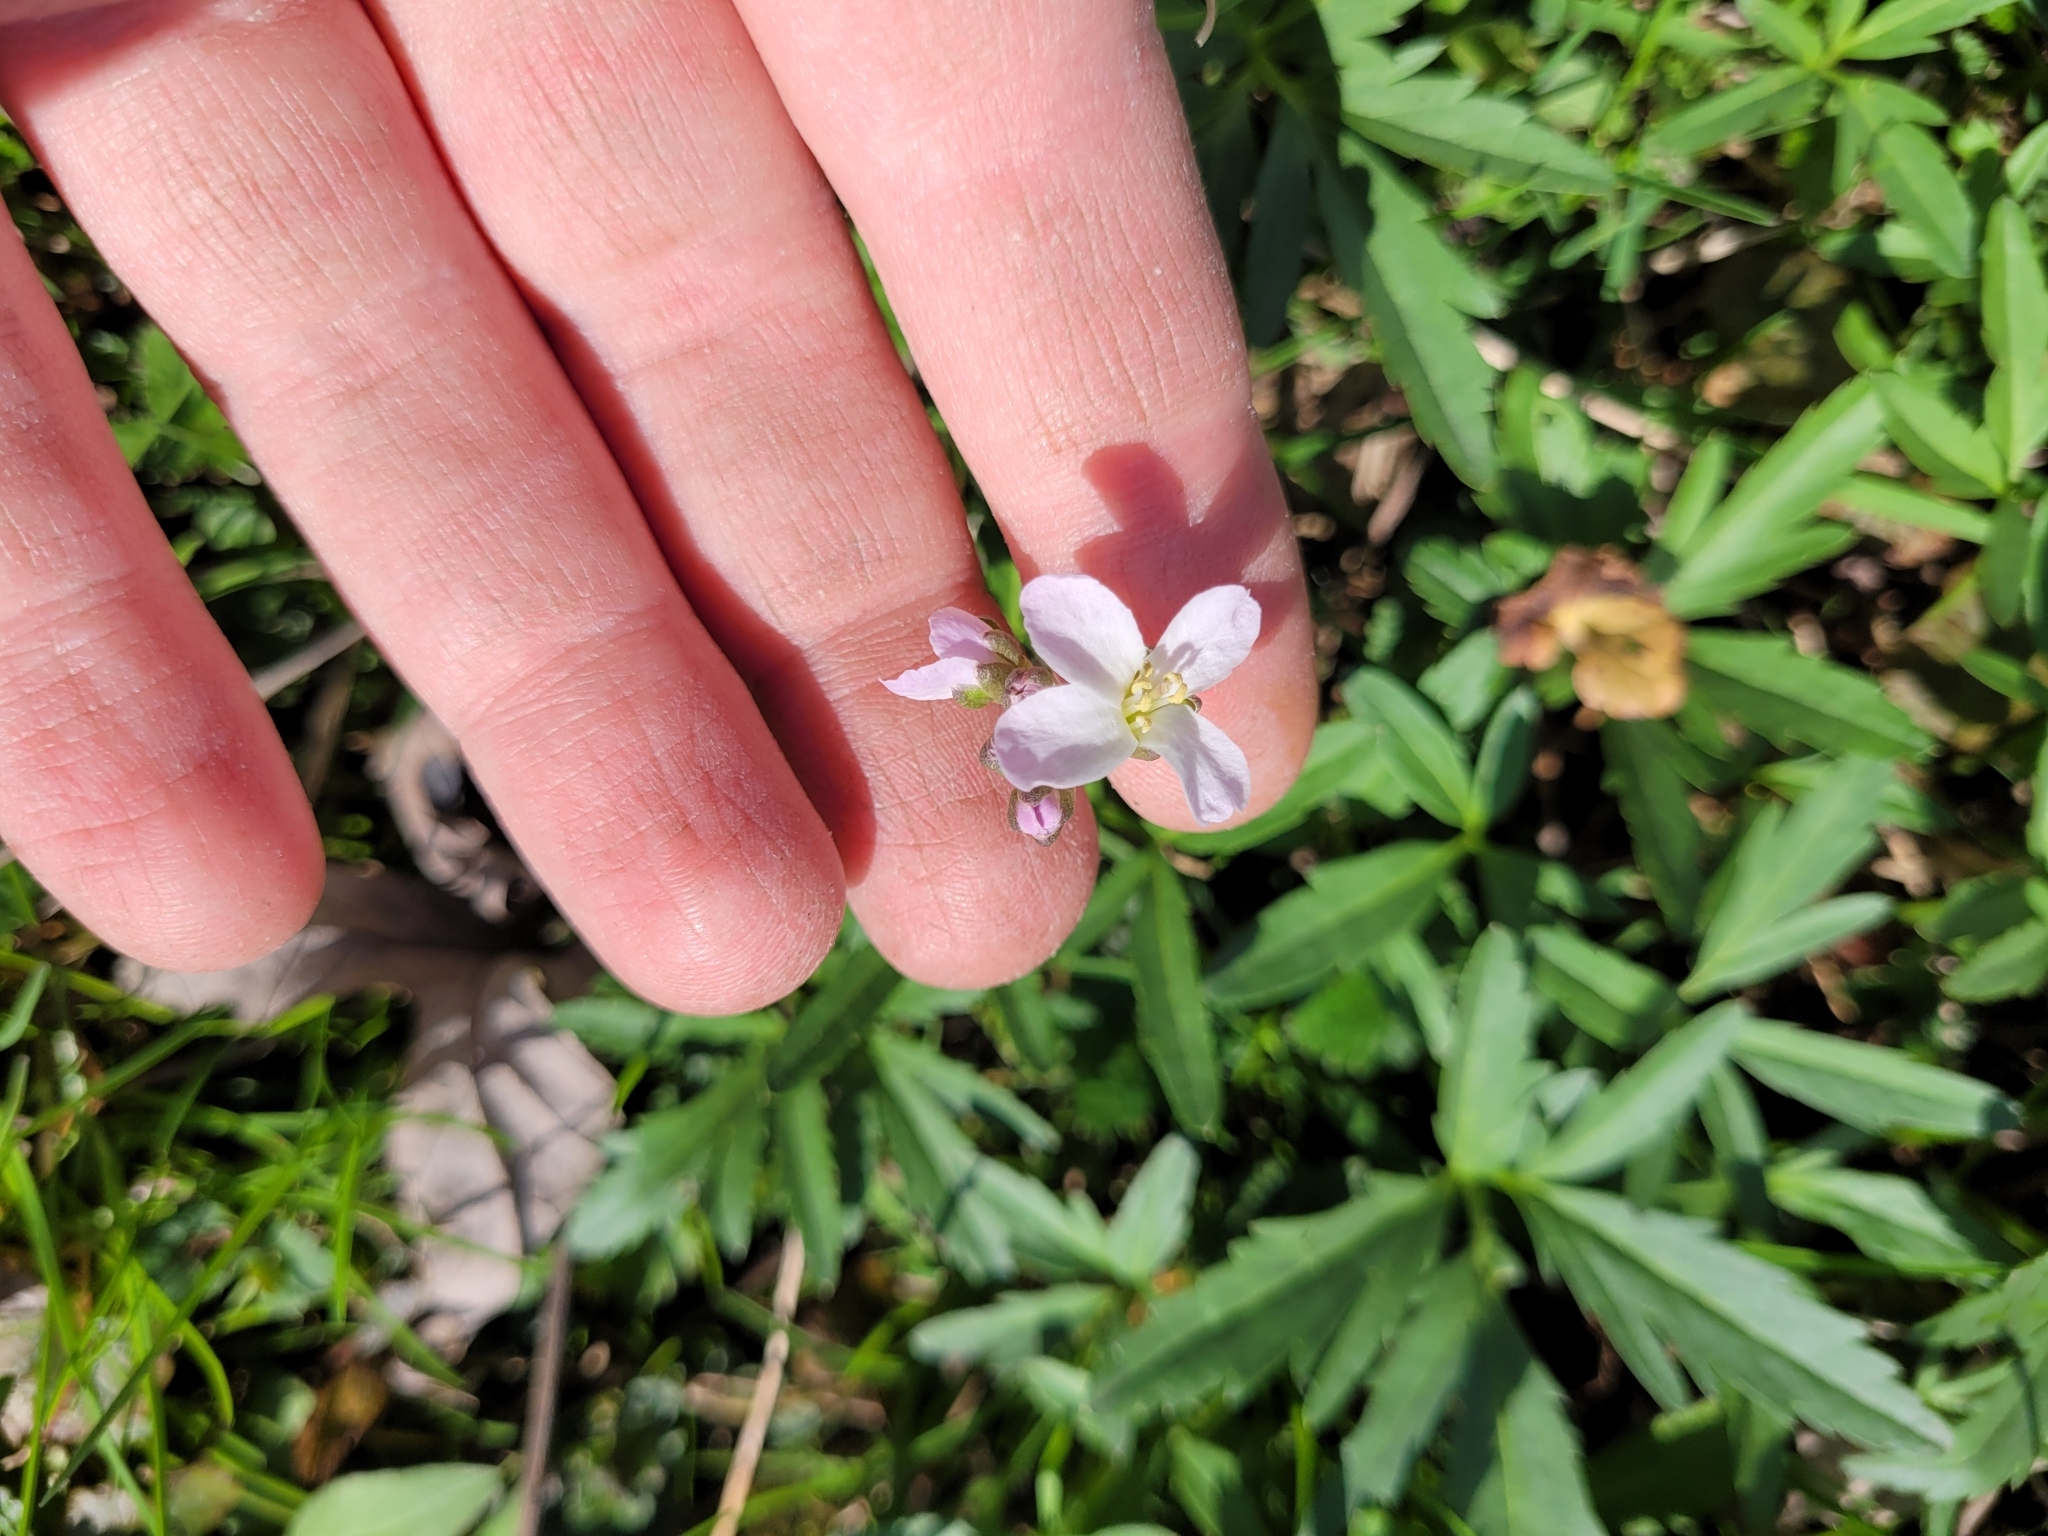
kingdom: Plantae
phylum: Tracheophyta
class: Magnoliopsida
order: Brassicales
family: Brassicaceae
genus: Cardamine
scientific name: Cardamine concatenata
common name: Cut-leaf toothcup
